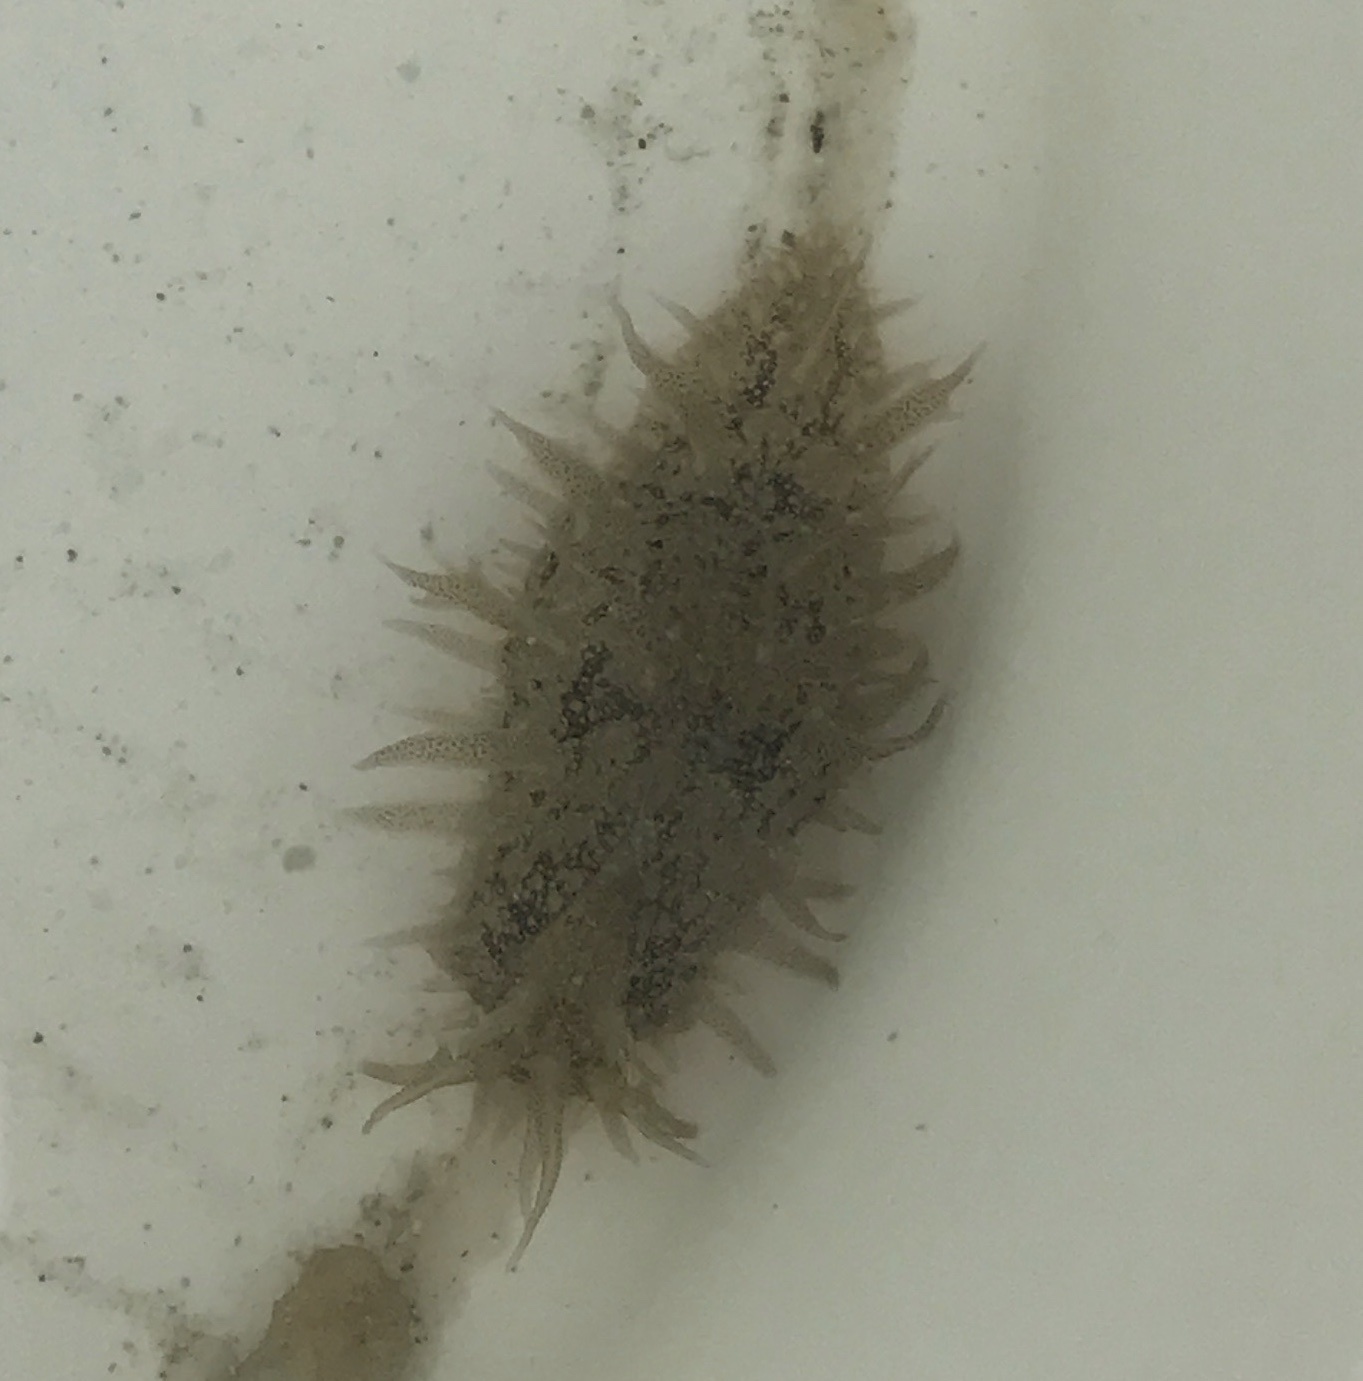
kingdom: Animalia
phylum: Mollusca
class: Gastropoda
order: Aplysiida
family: Aplysiidae
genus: Bursatella
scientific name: Bursatella leachii
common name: Shaggy sea hare
